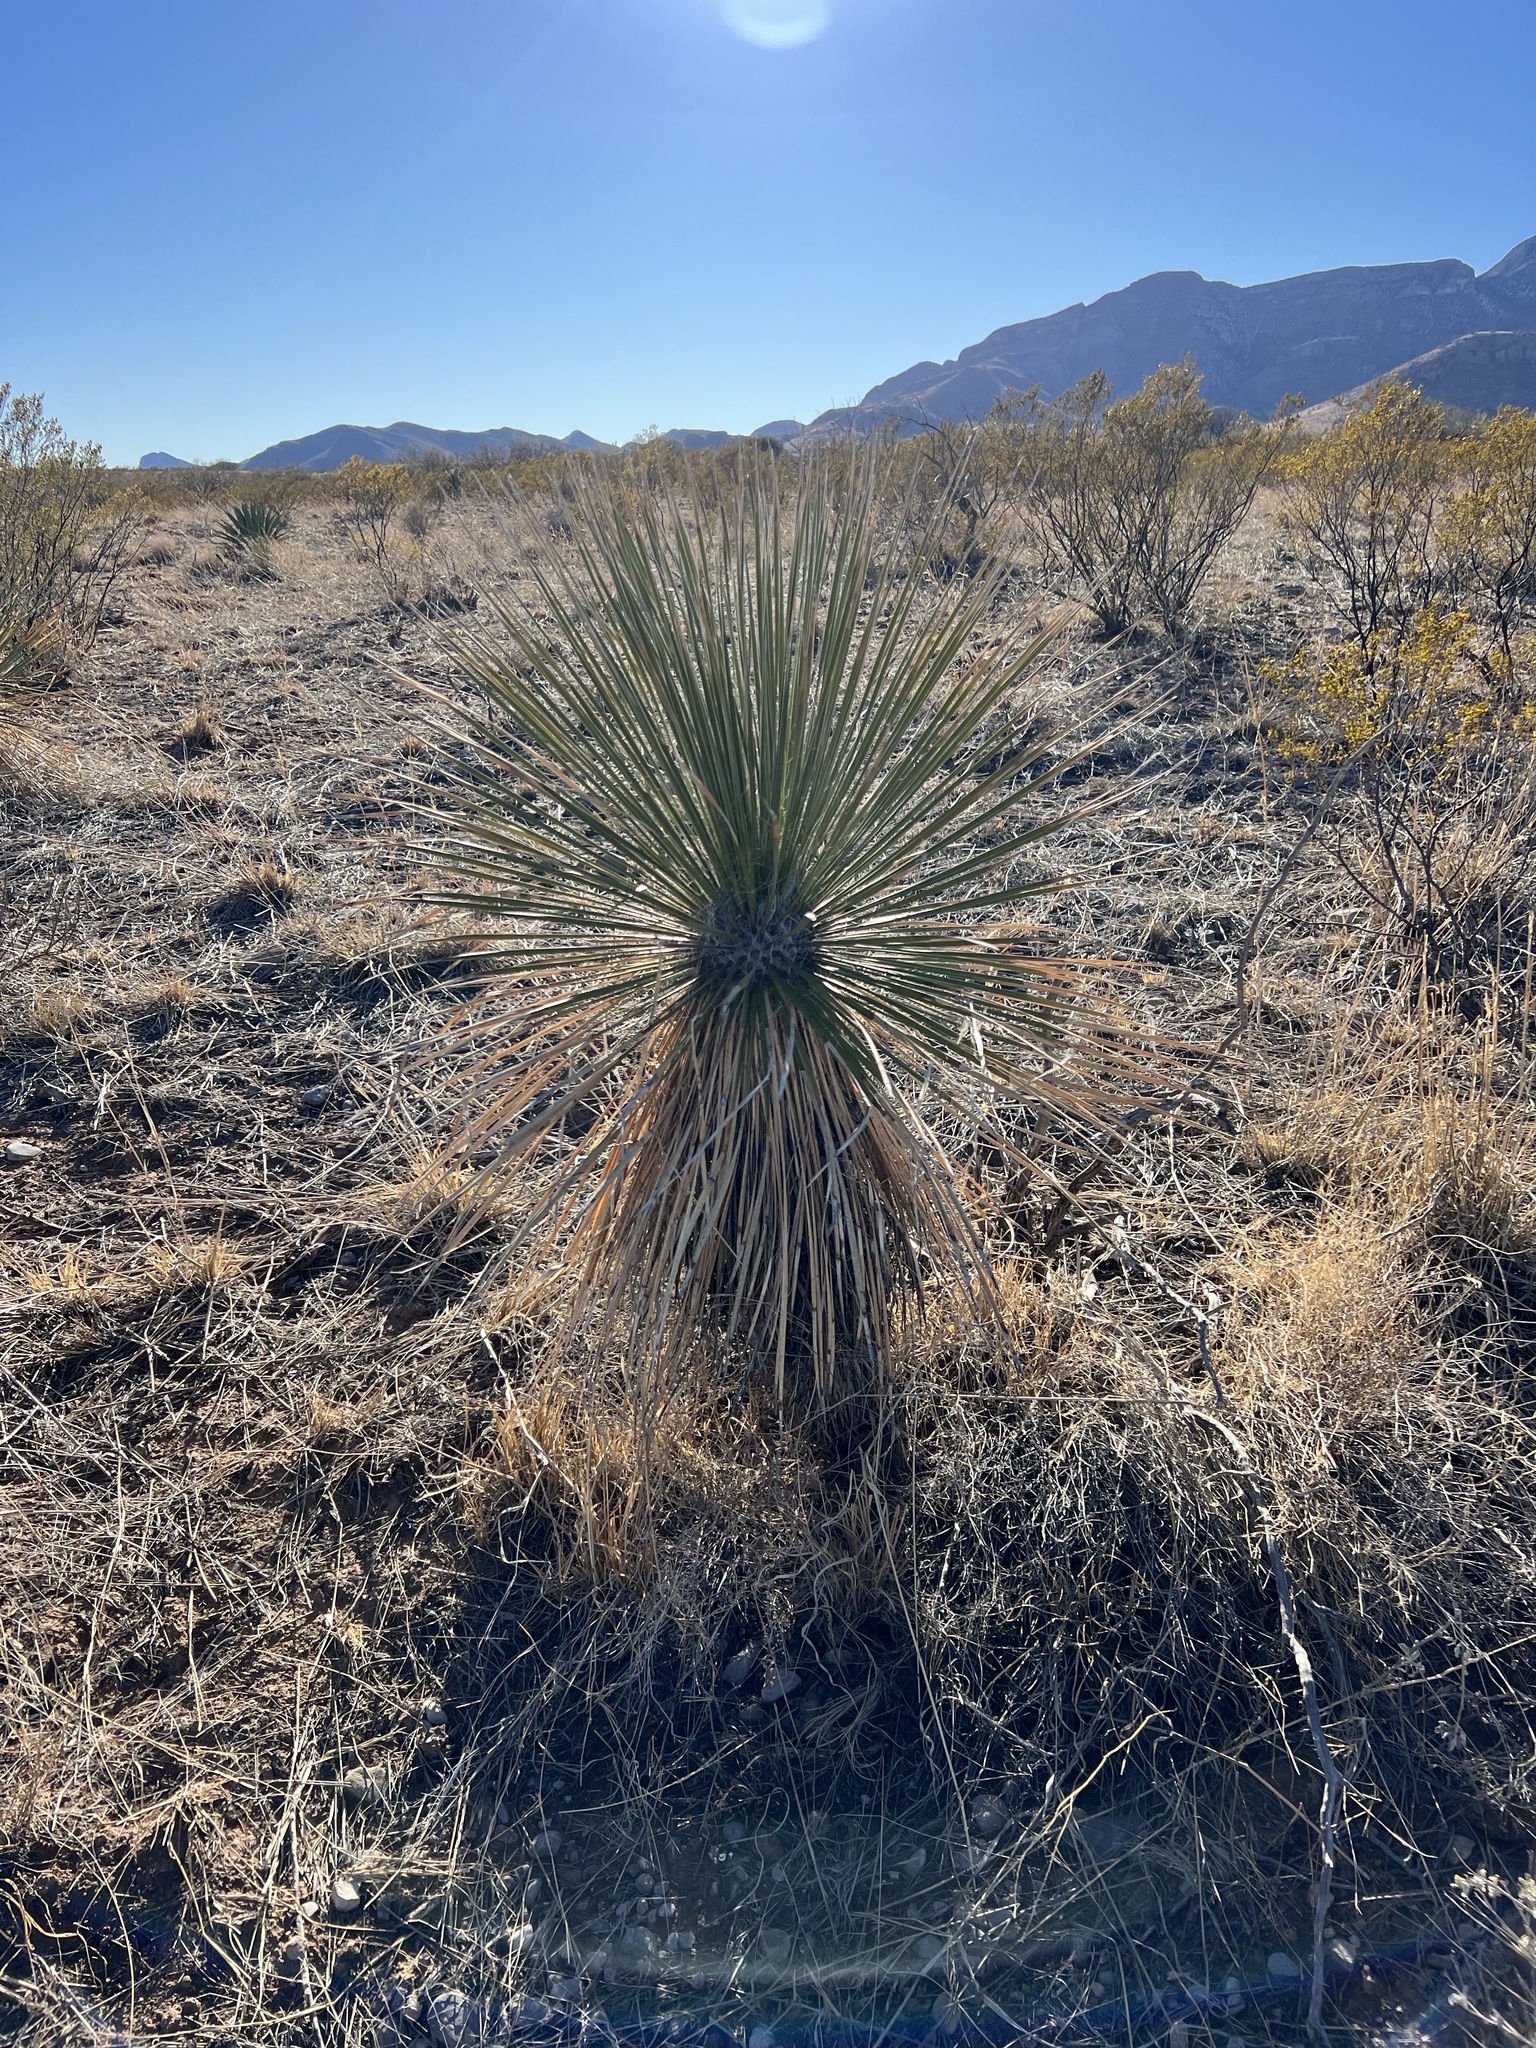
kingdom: Plantae
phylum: Tracheophyta
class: Liliopsida
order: Asparagales
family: Asparagaceae
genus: Yucca
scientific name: Yucca elata
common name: Palmella
